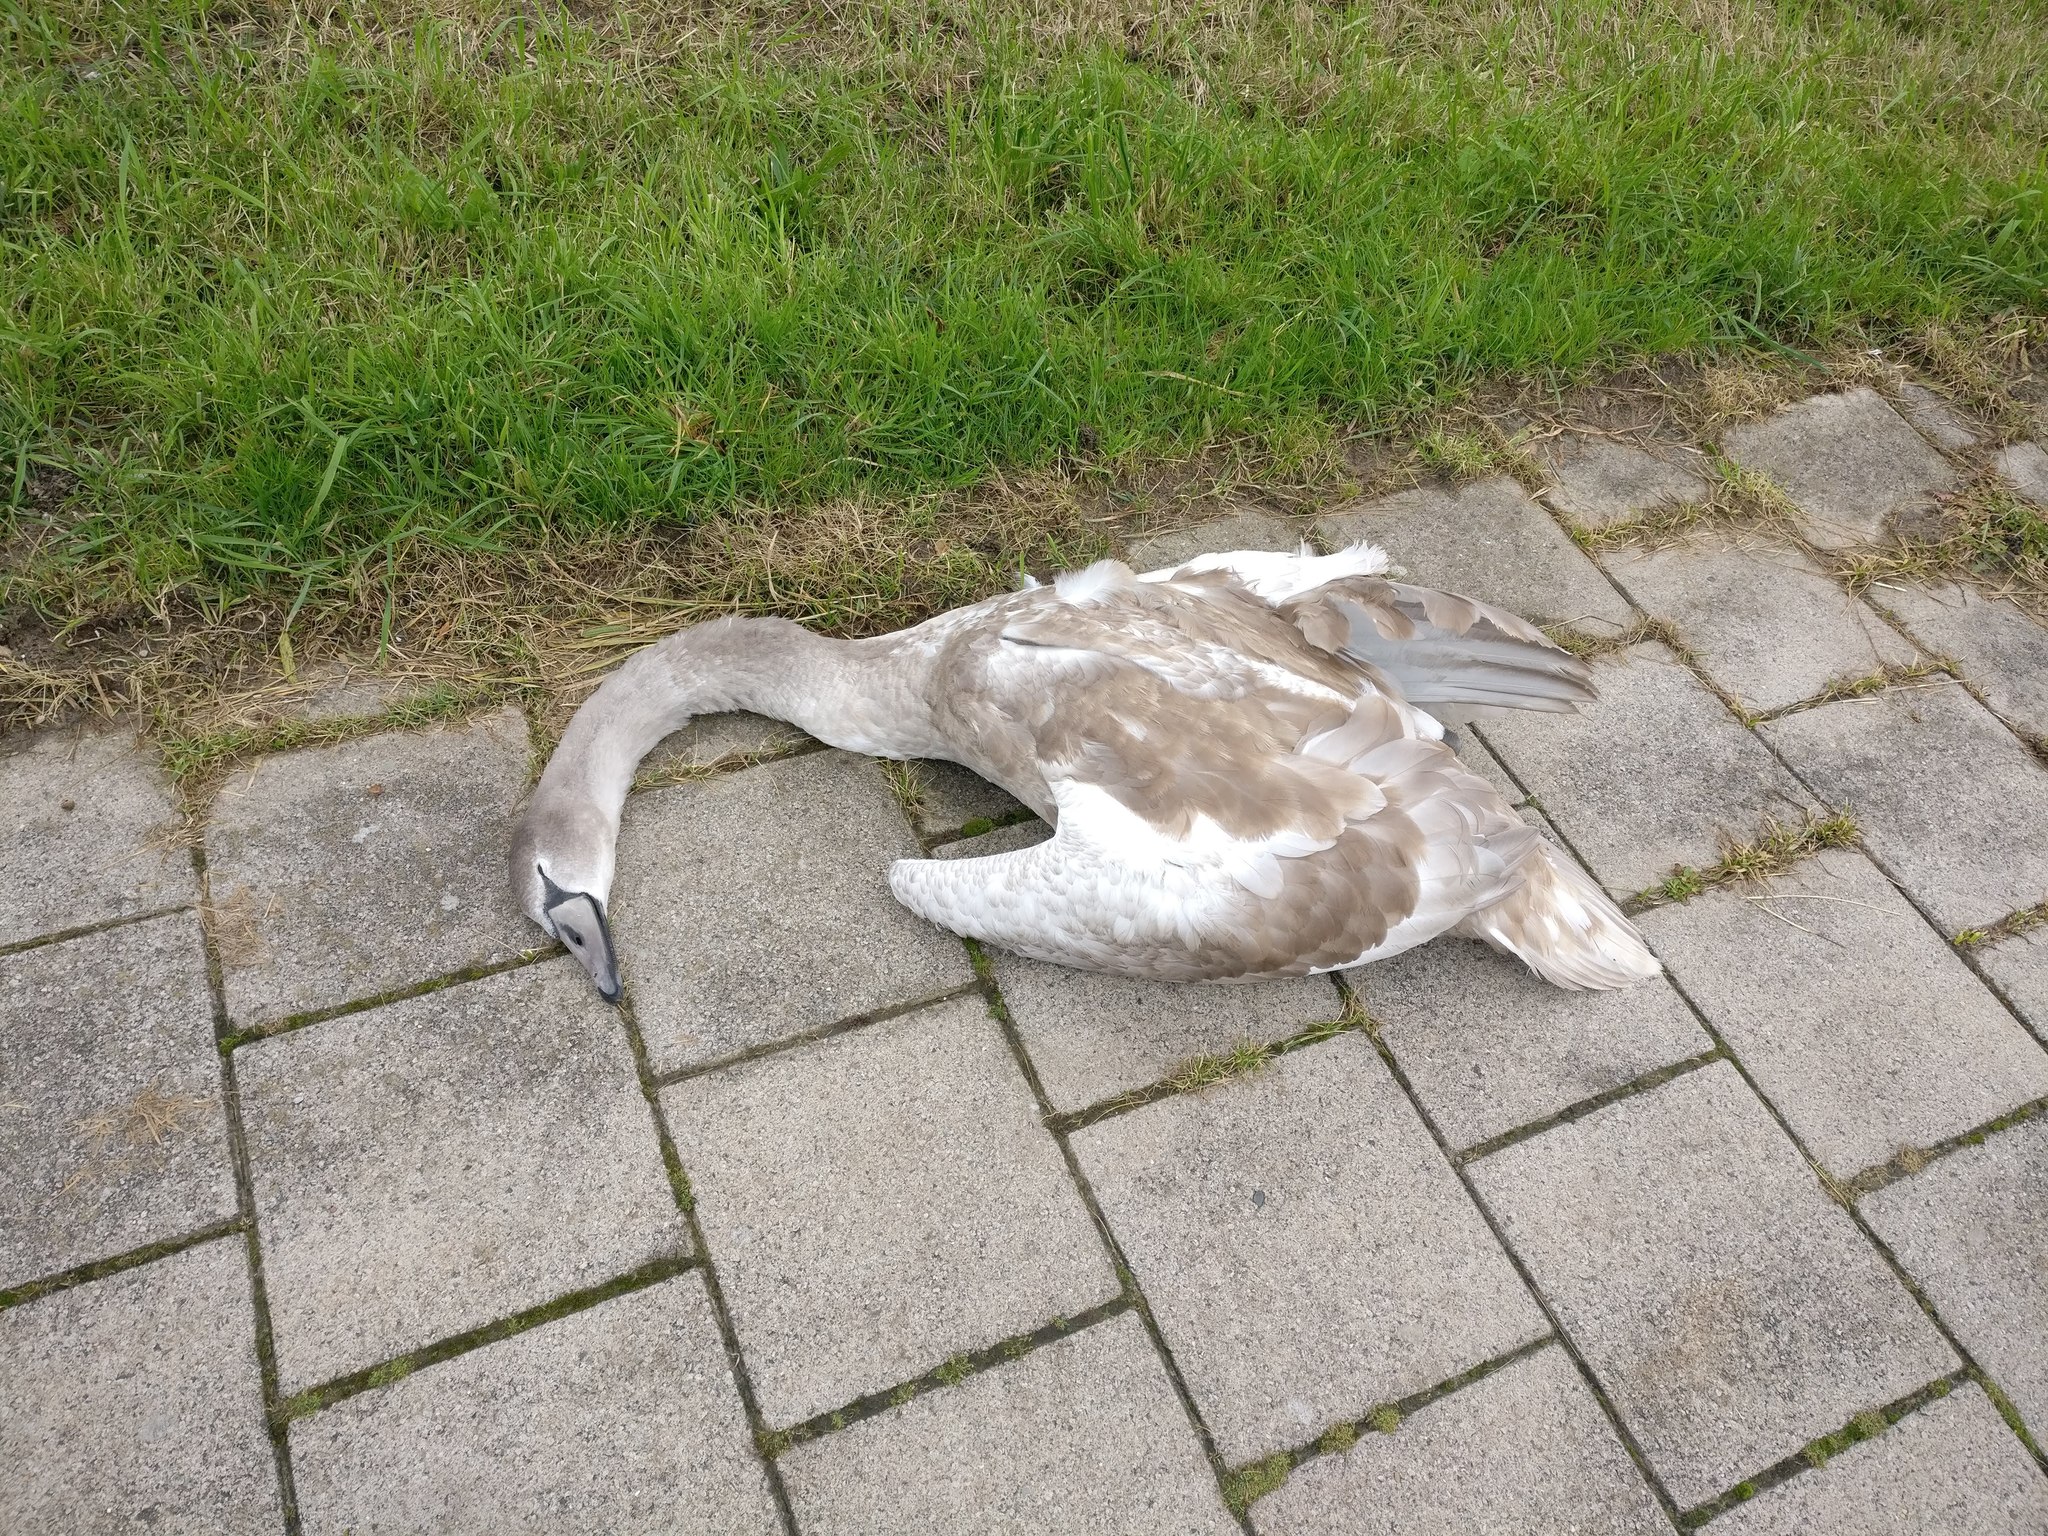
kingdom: Animalia
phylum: Chordata
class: Aves
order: Anseriformes
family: Anatidae
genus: Cygnus
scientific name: Cygnus olor
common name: Mute swan
